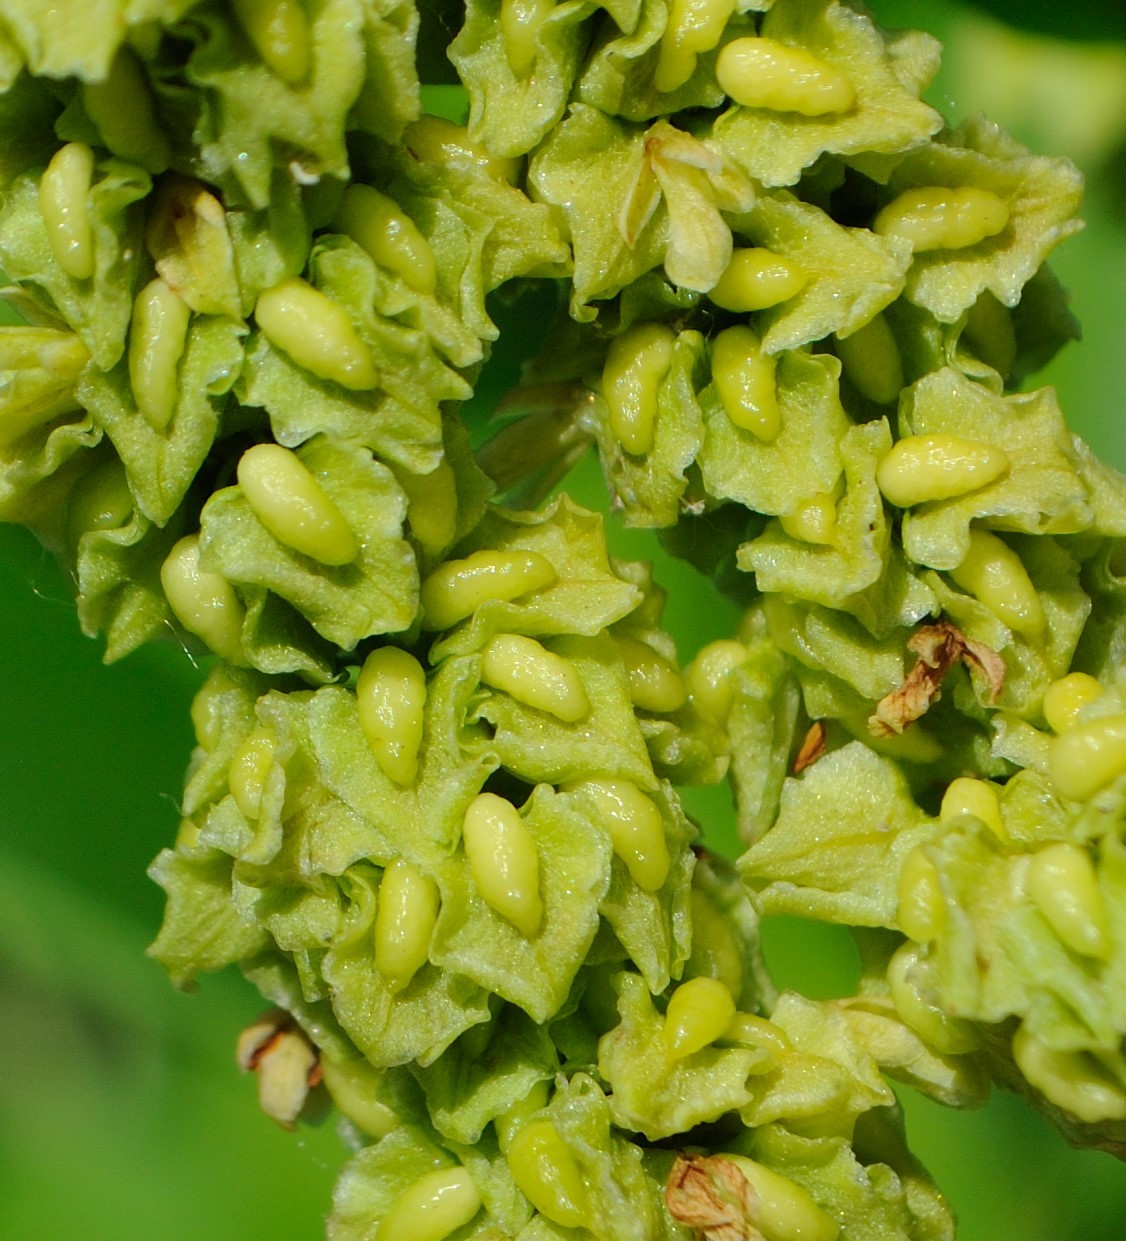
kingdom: Plantae
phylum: Tracheophyta
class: Magnoliopsida
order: Caryophyllales
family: Polygonaceae
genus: Rumex
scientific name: Rumex altissimus
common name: Smooth dock
